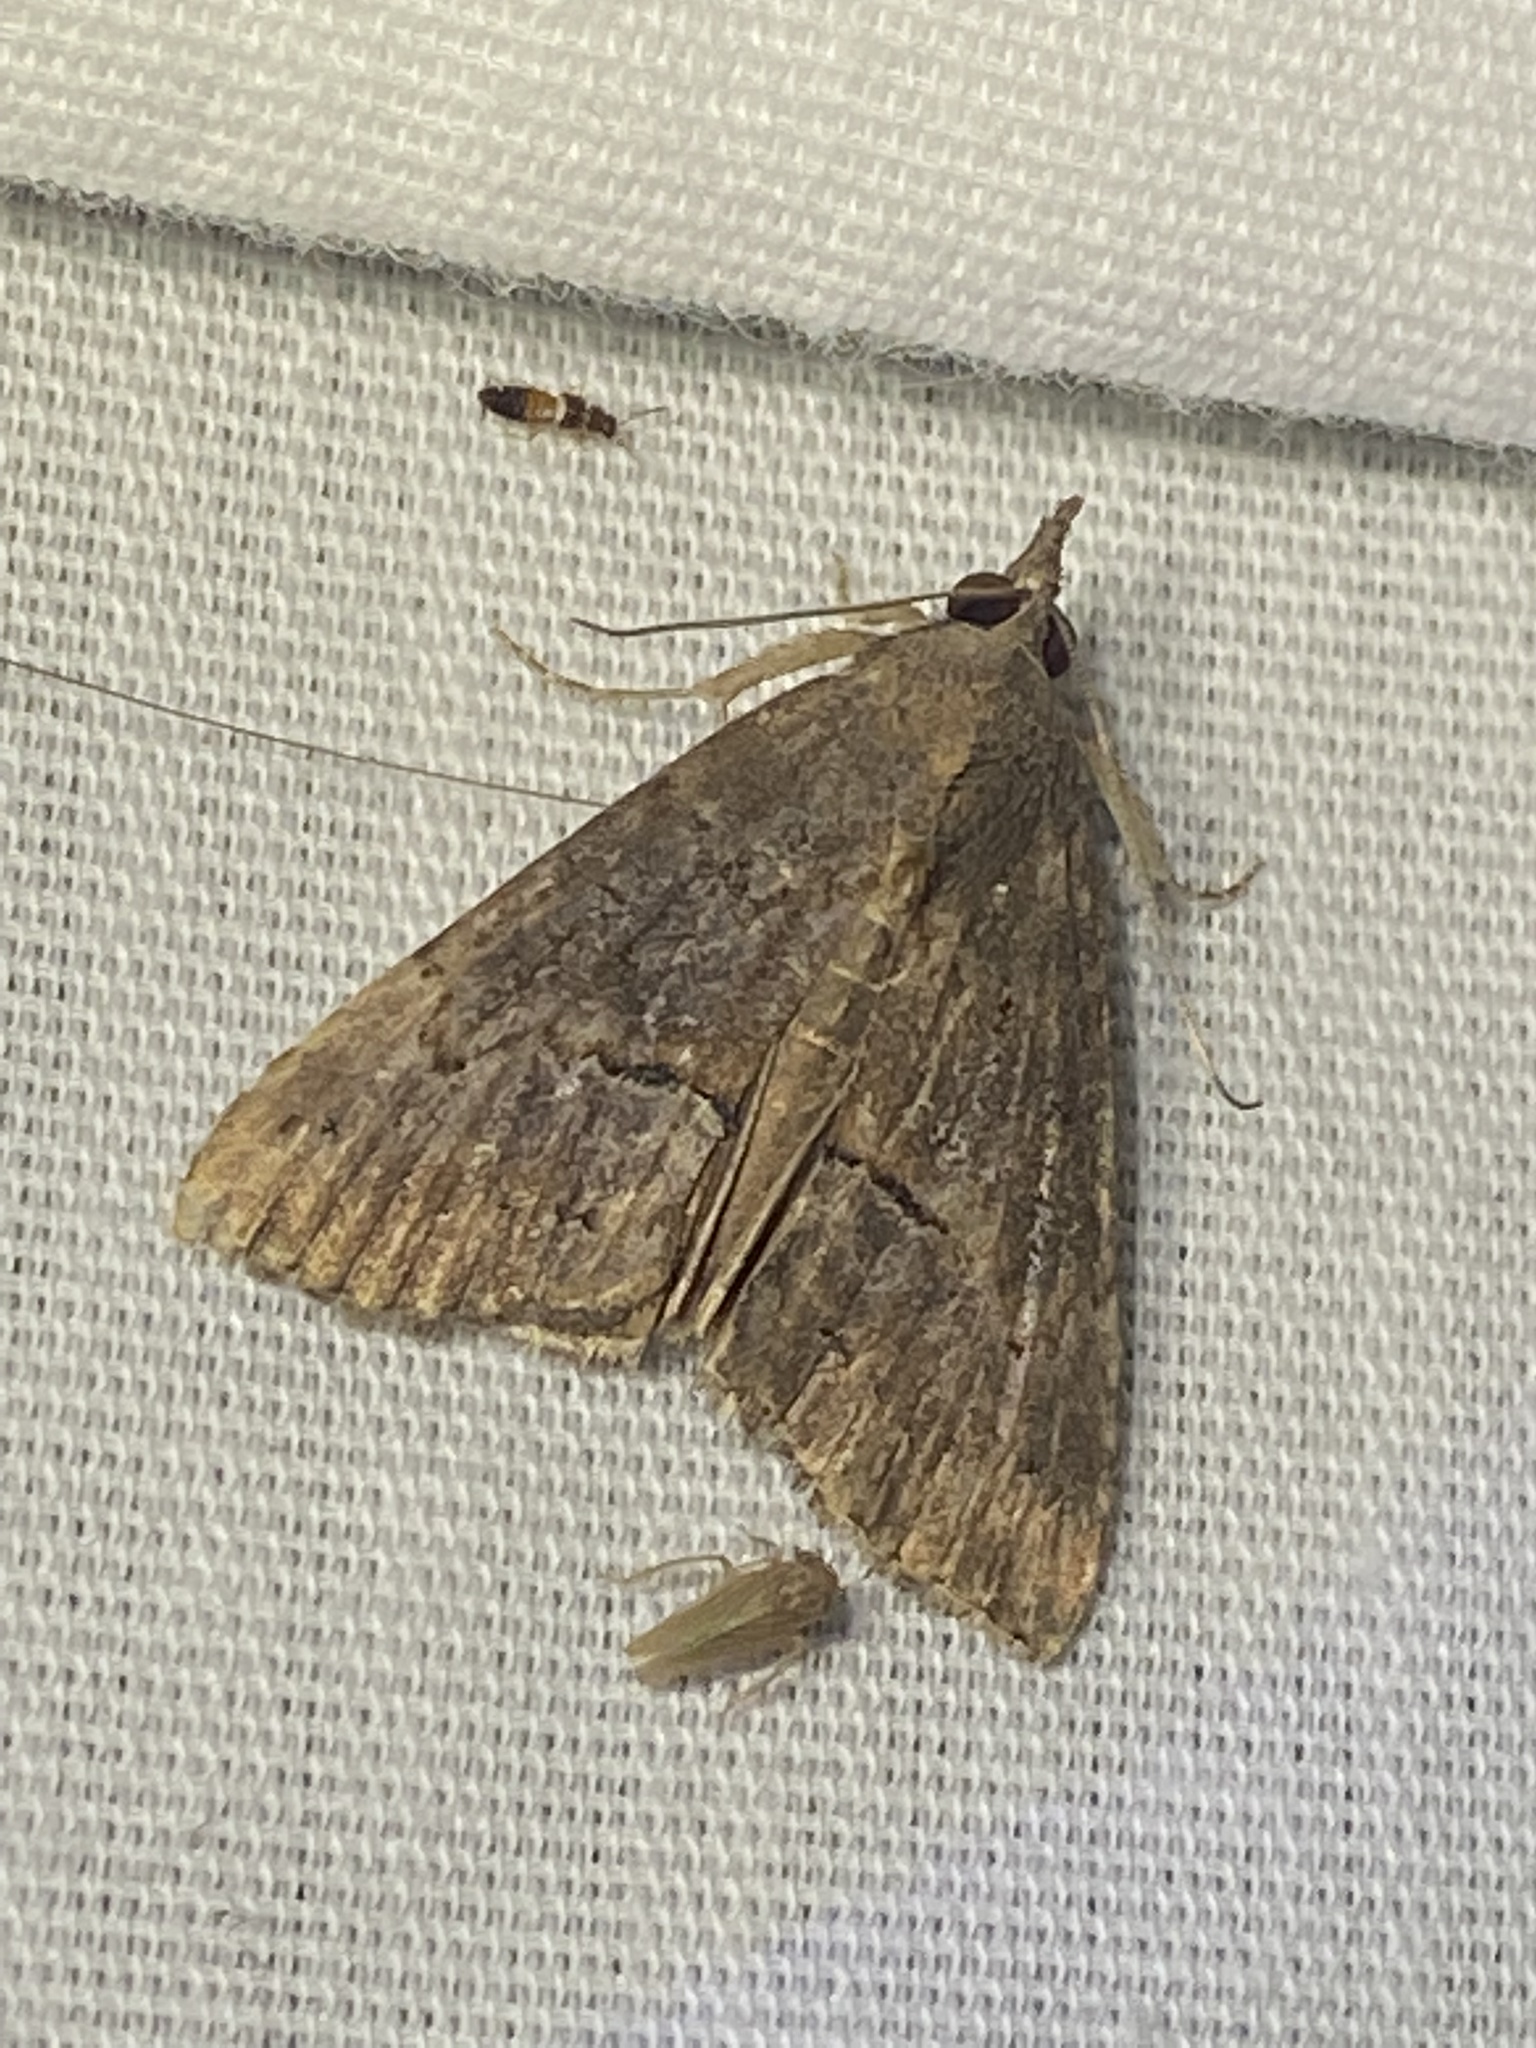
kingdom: Animalia
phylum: Arthropoda
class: Insecta
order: Lepidoptera
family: Erebidae
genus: Hypena
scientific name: Hypena scabra
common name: Green cloverworm
